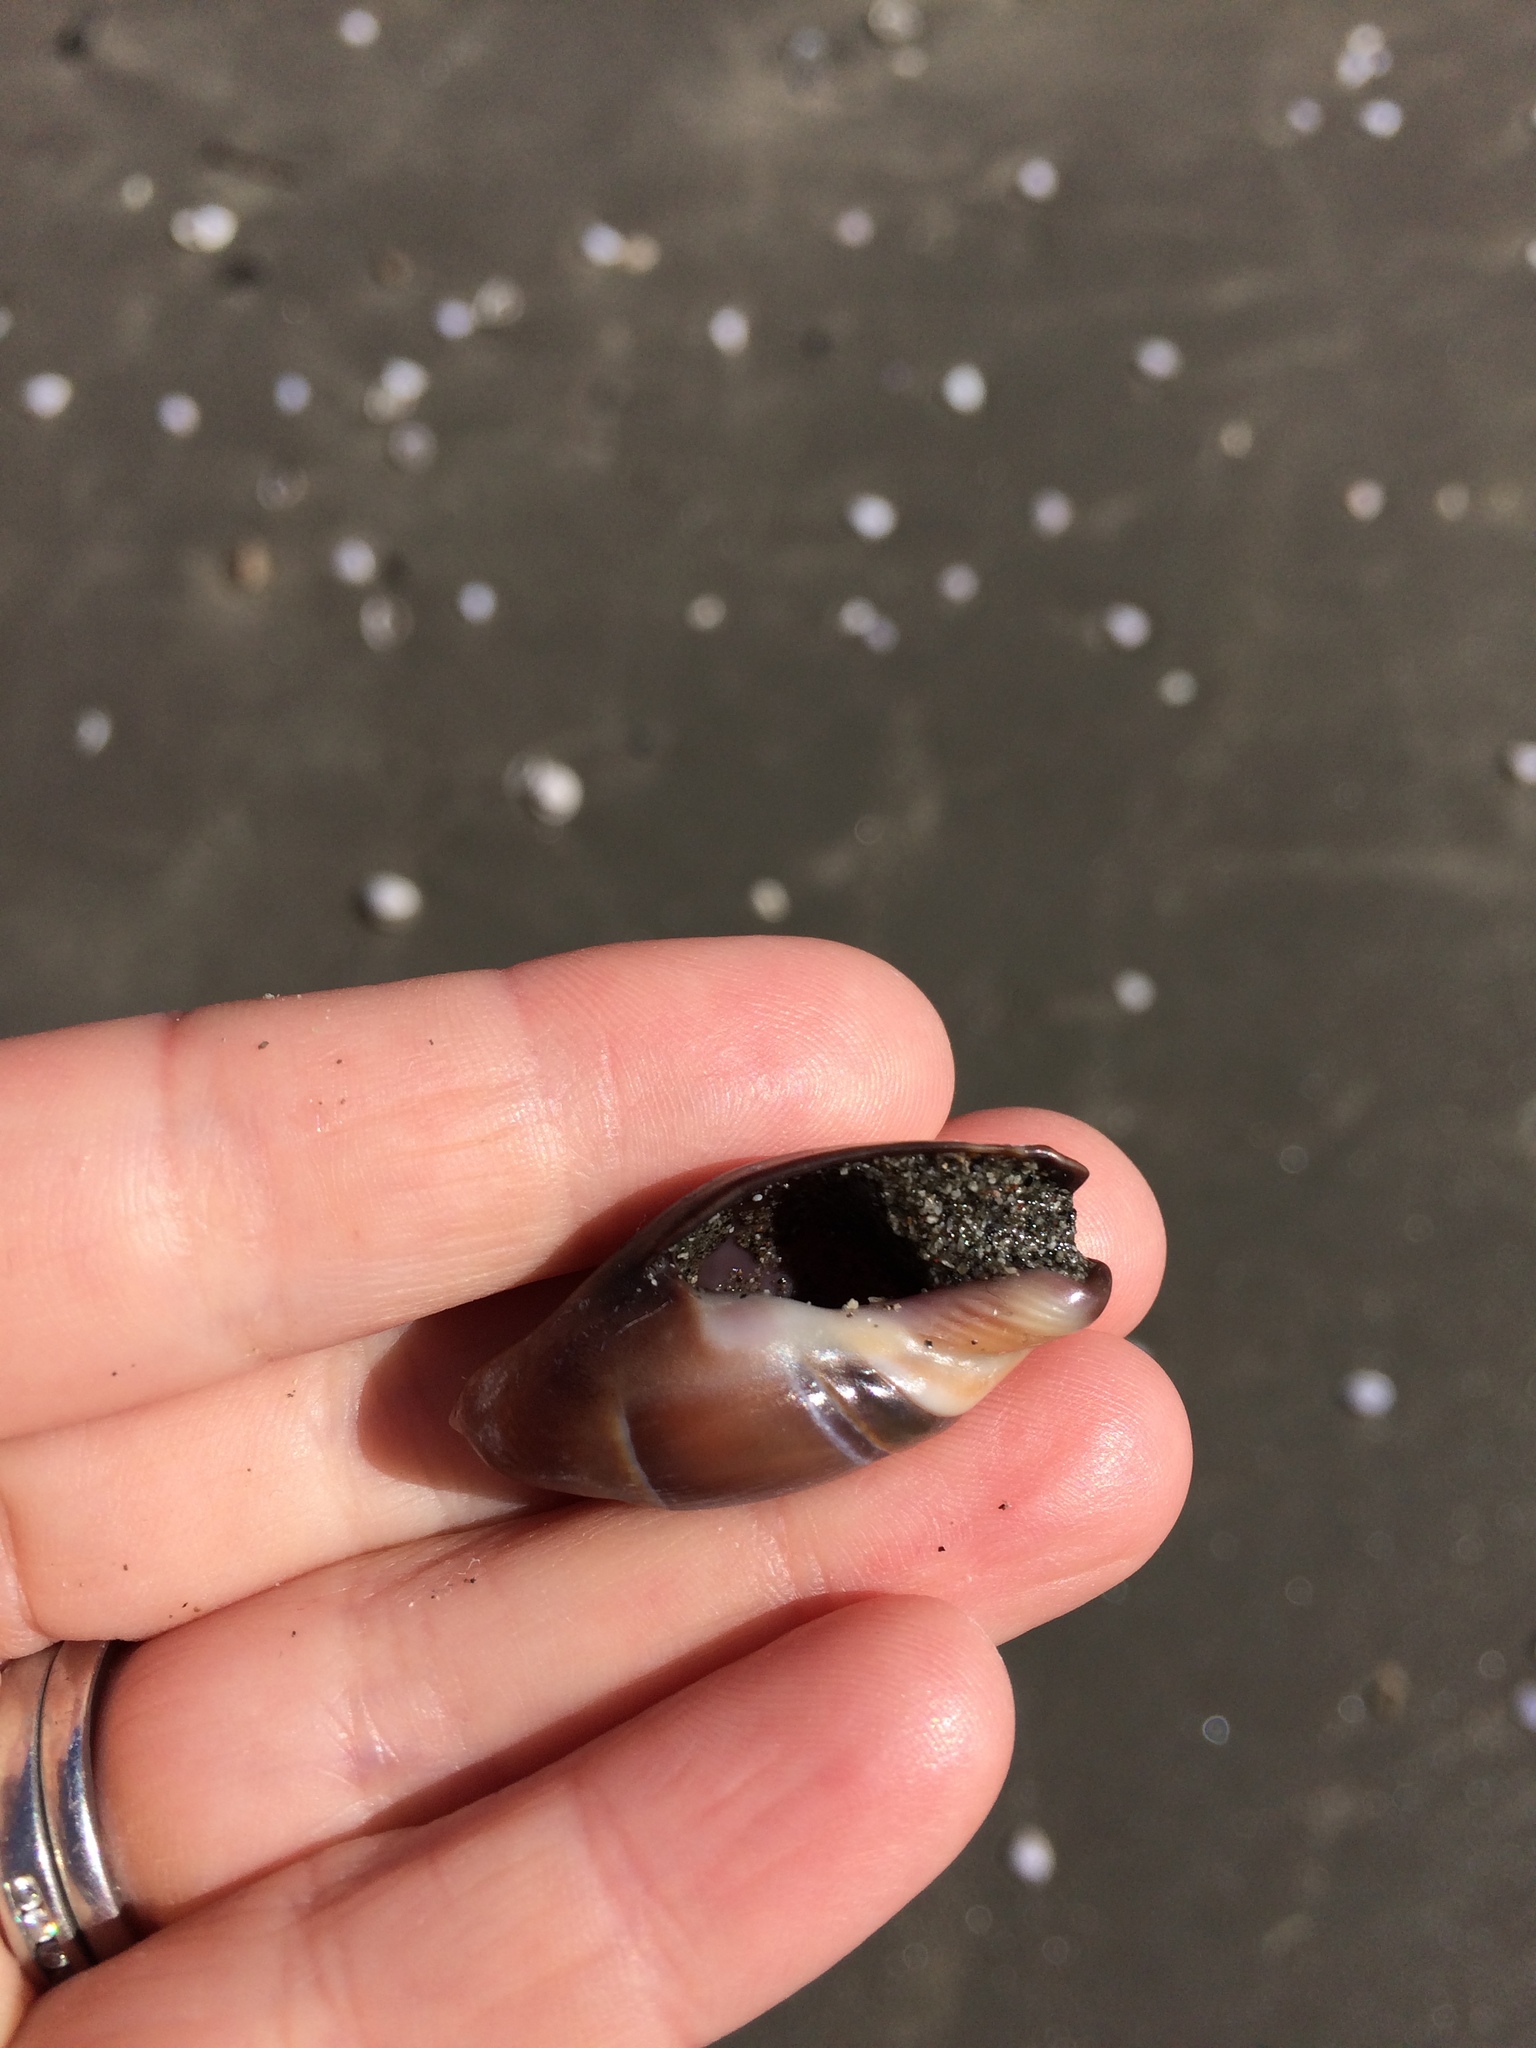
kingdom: Animalia
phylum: Mollusca
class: Gastropoda
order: Neogastropoda
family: Ancillariidae
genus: Amalda
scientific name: Amalda mucronata
